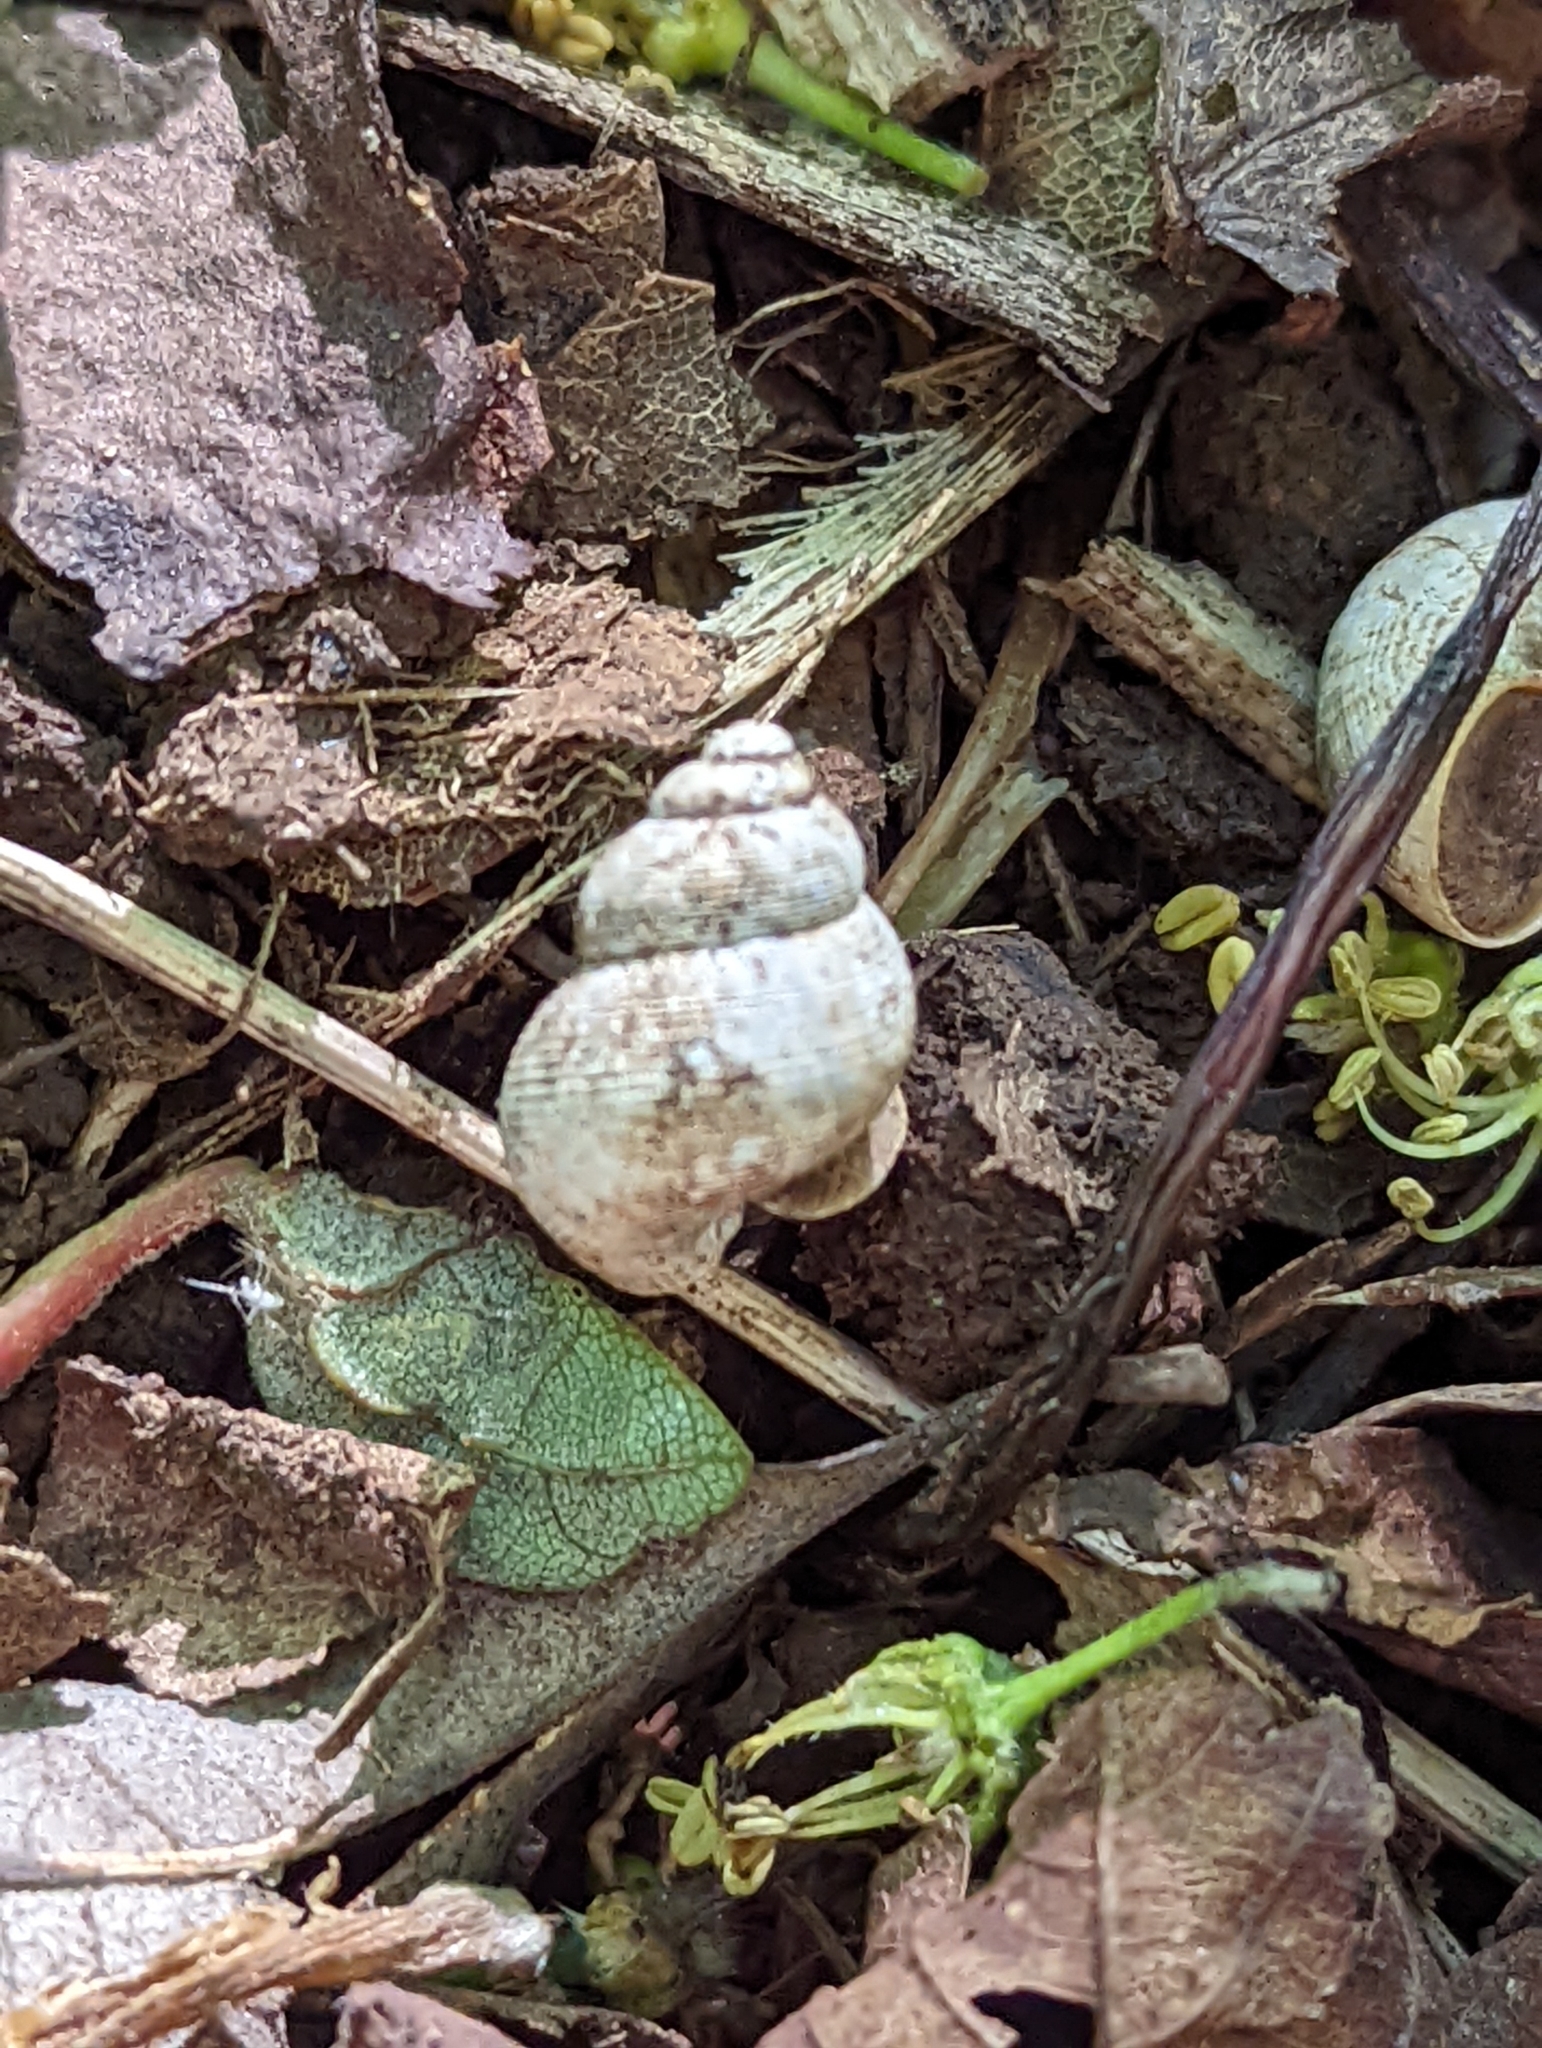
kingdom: Animalia
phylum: Mollusca
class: Gastropoda
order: Littorinimorpha
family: Pomatiidae
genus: Pomatias
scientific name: Pomatias elegans
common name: Red-mouthed snail
